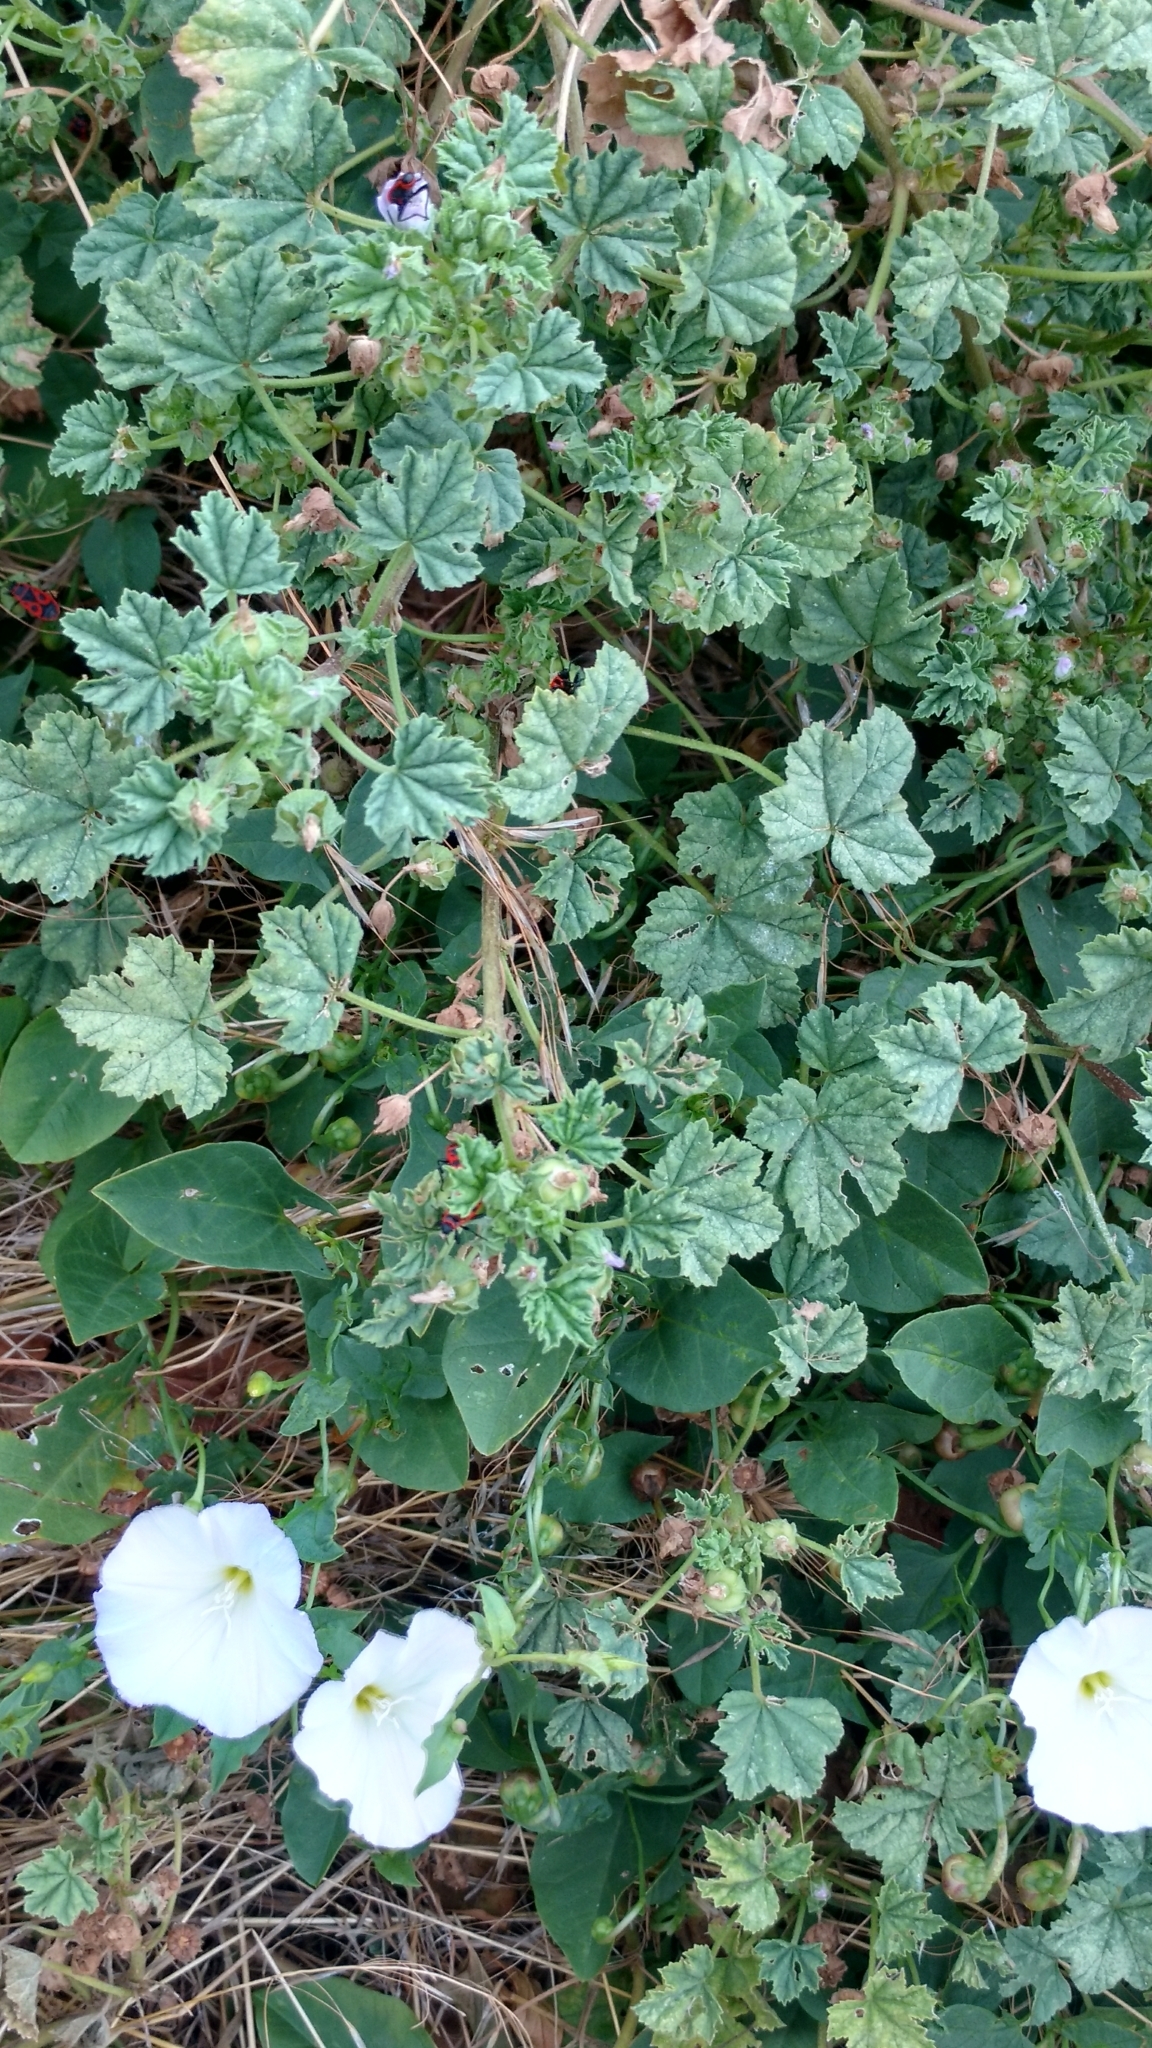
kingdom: Animalia
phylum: Arthropoda
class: Insecta
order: Hemiptera
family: Pyrrhocoridae
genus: Pyrrhocoris
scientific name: Pyrrhocoris apterus
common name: Firebug
